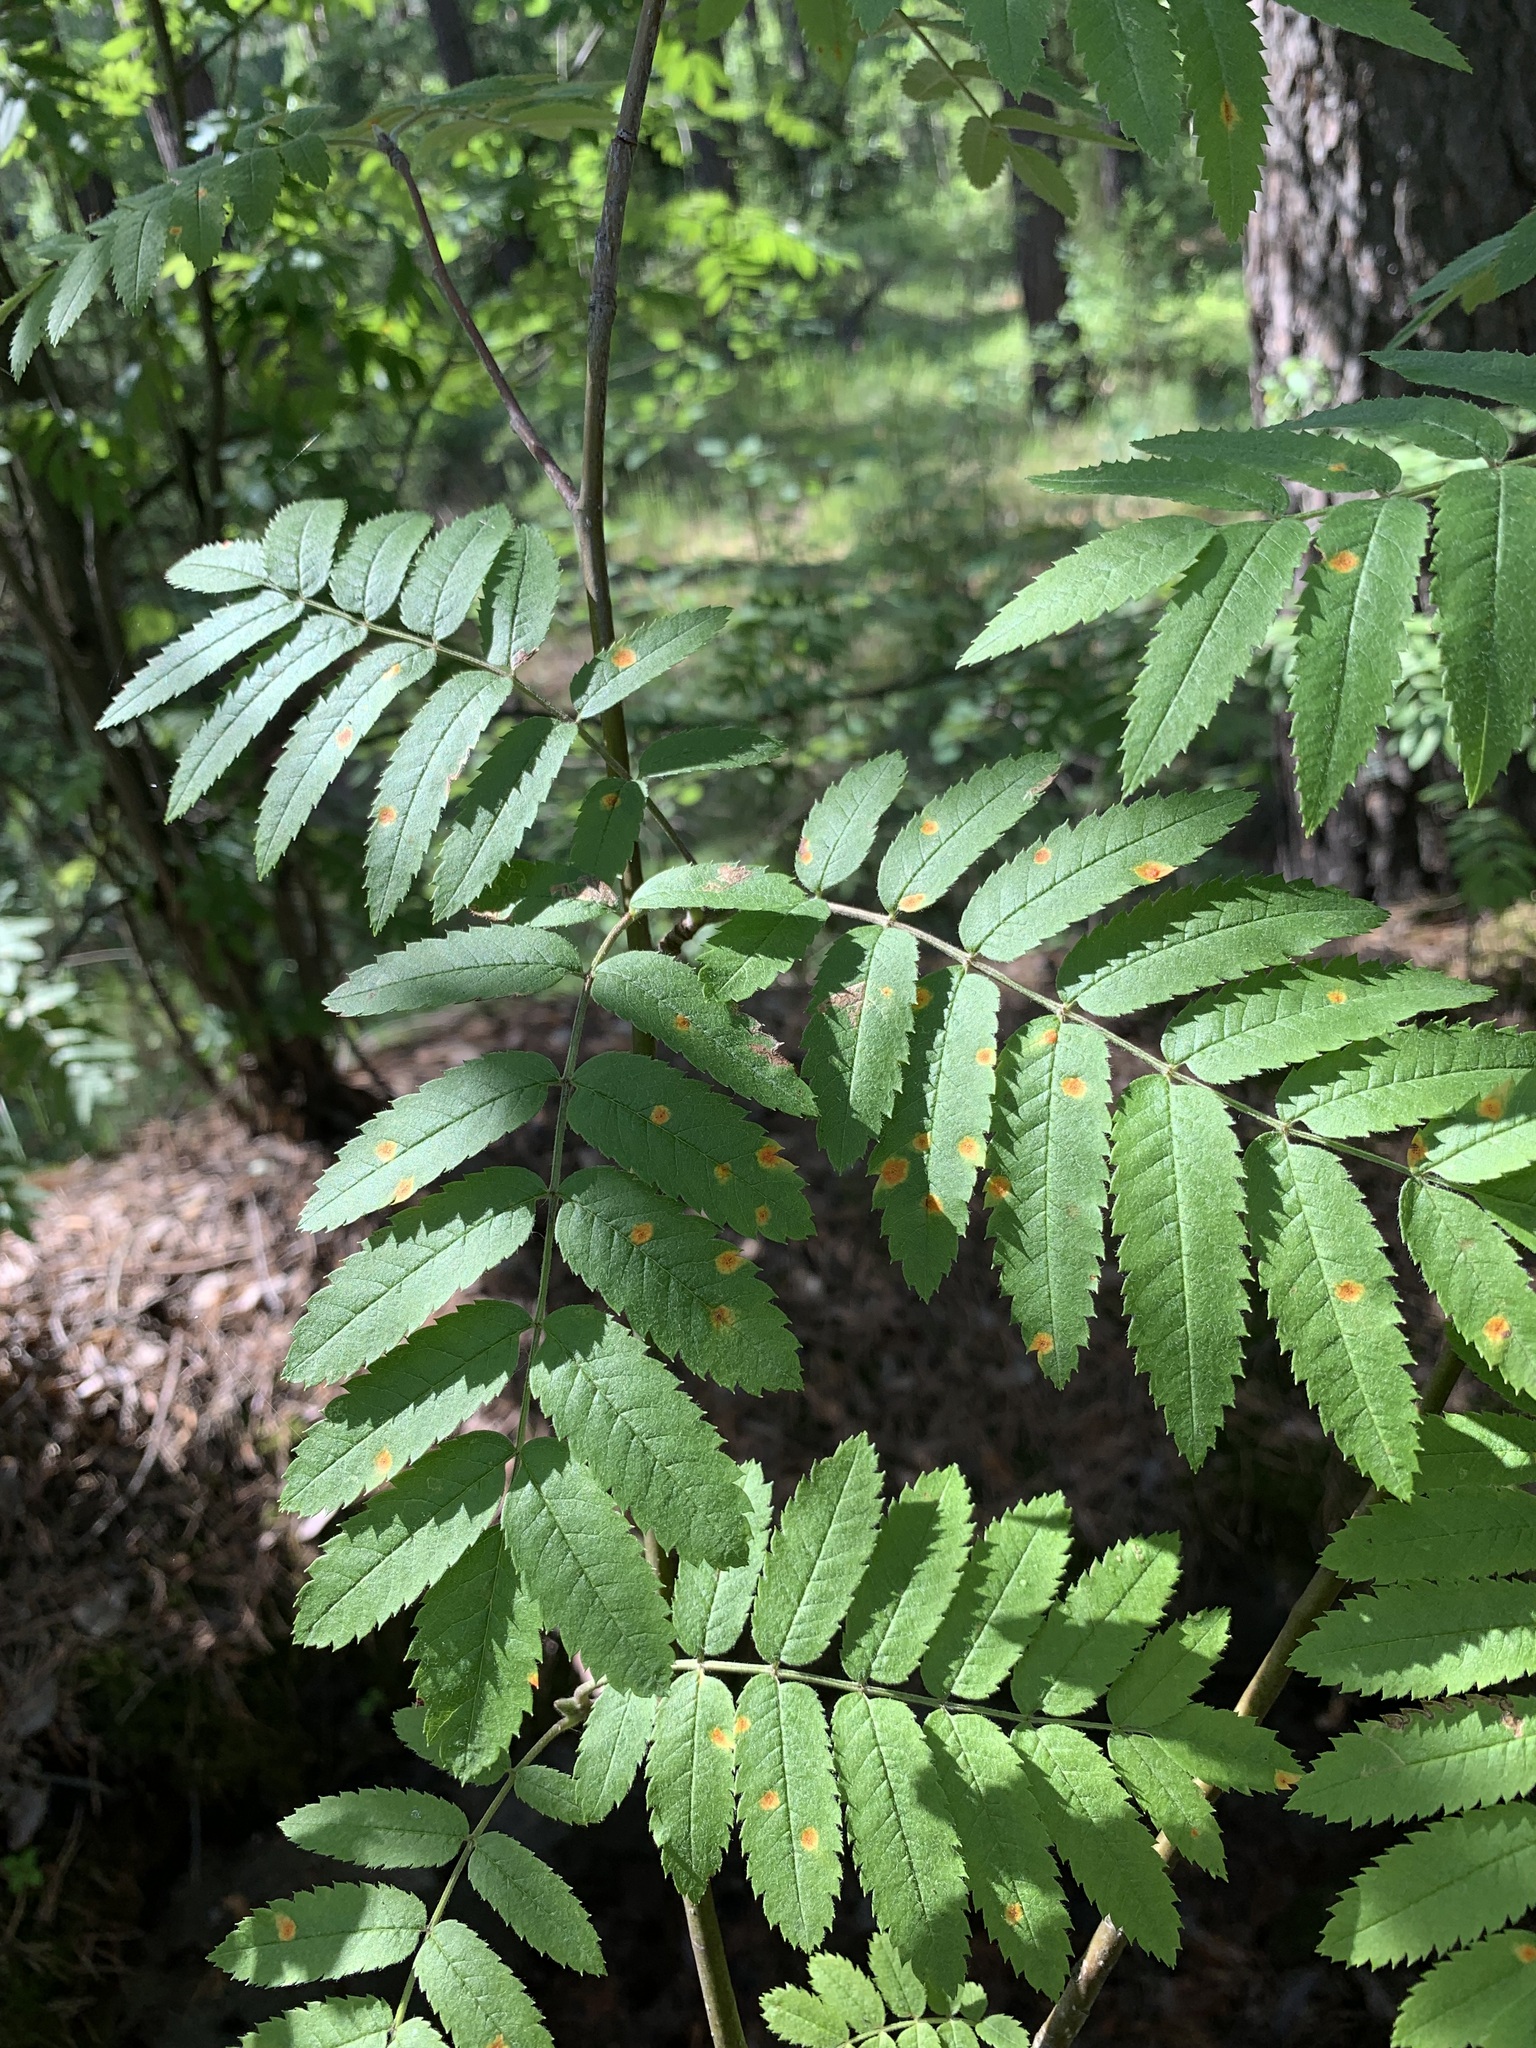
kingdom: Plantae
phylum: Tracheophyta
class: Magnoliopsida
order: Rosales
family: Rosaceae
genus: Sorbus
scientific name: Sorbus aucuparia
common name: Rowan
